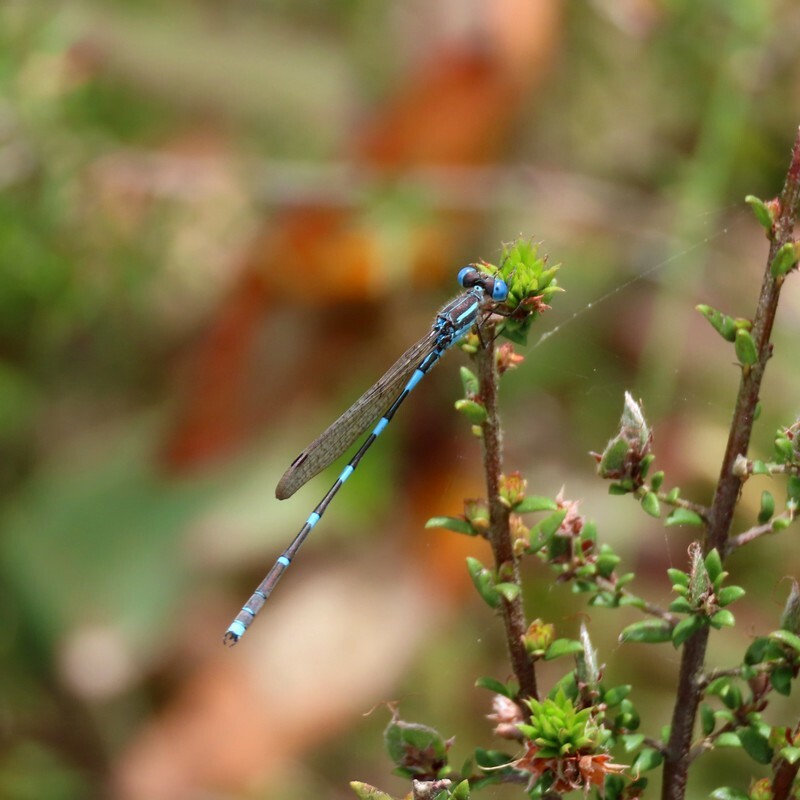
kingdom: Animalia
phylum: Arthropoda
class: Insecta
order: Odonata
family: Lestidae
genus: Austrolestes
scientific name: Austrolestes leda
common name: Wandering ringtail
